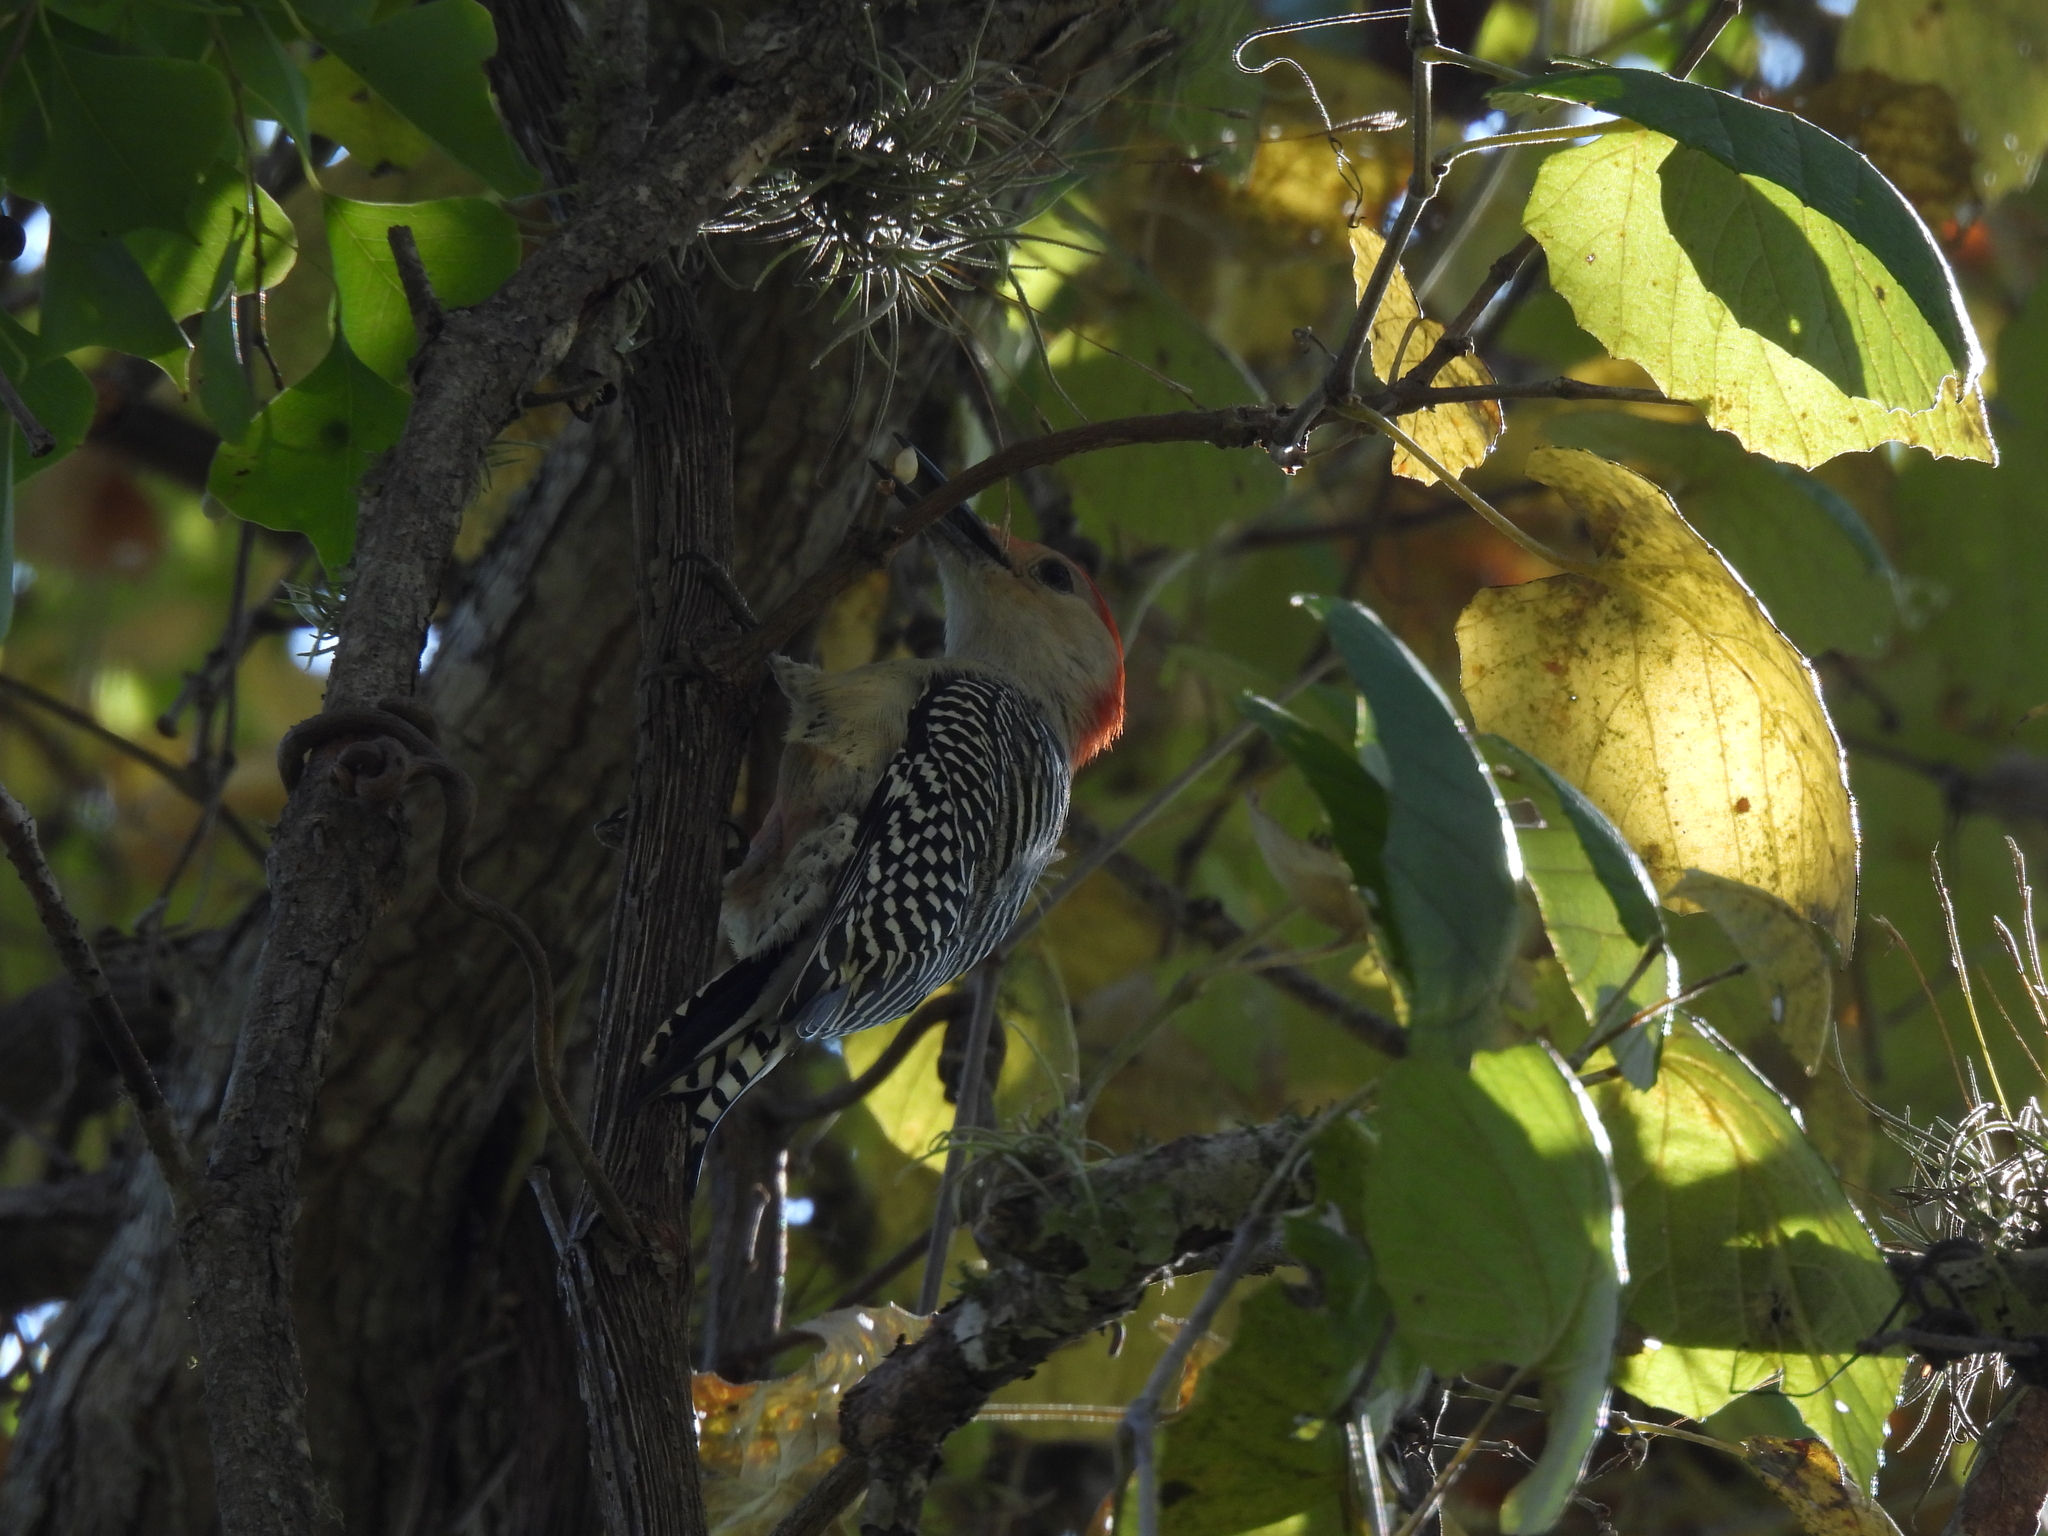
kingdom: Animalia
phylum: Chordata
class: Aves
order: Piciformes
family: Picidae
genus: Melanerpes
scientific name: Melanerpes carolinus
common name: Red-bellied woodpecker
